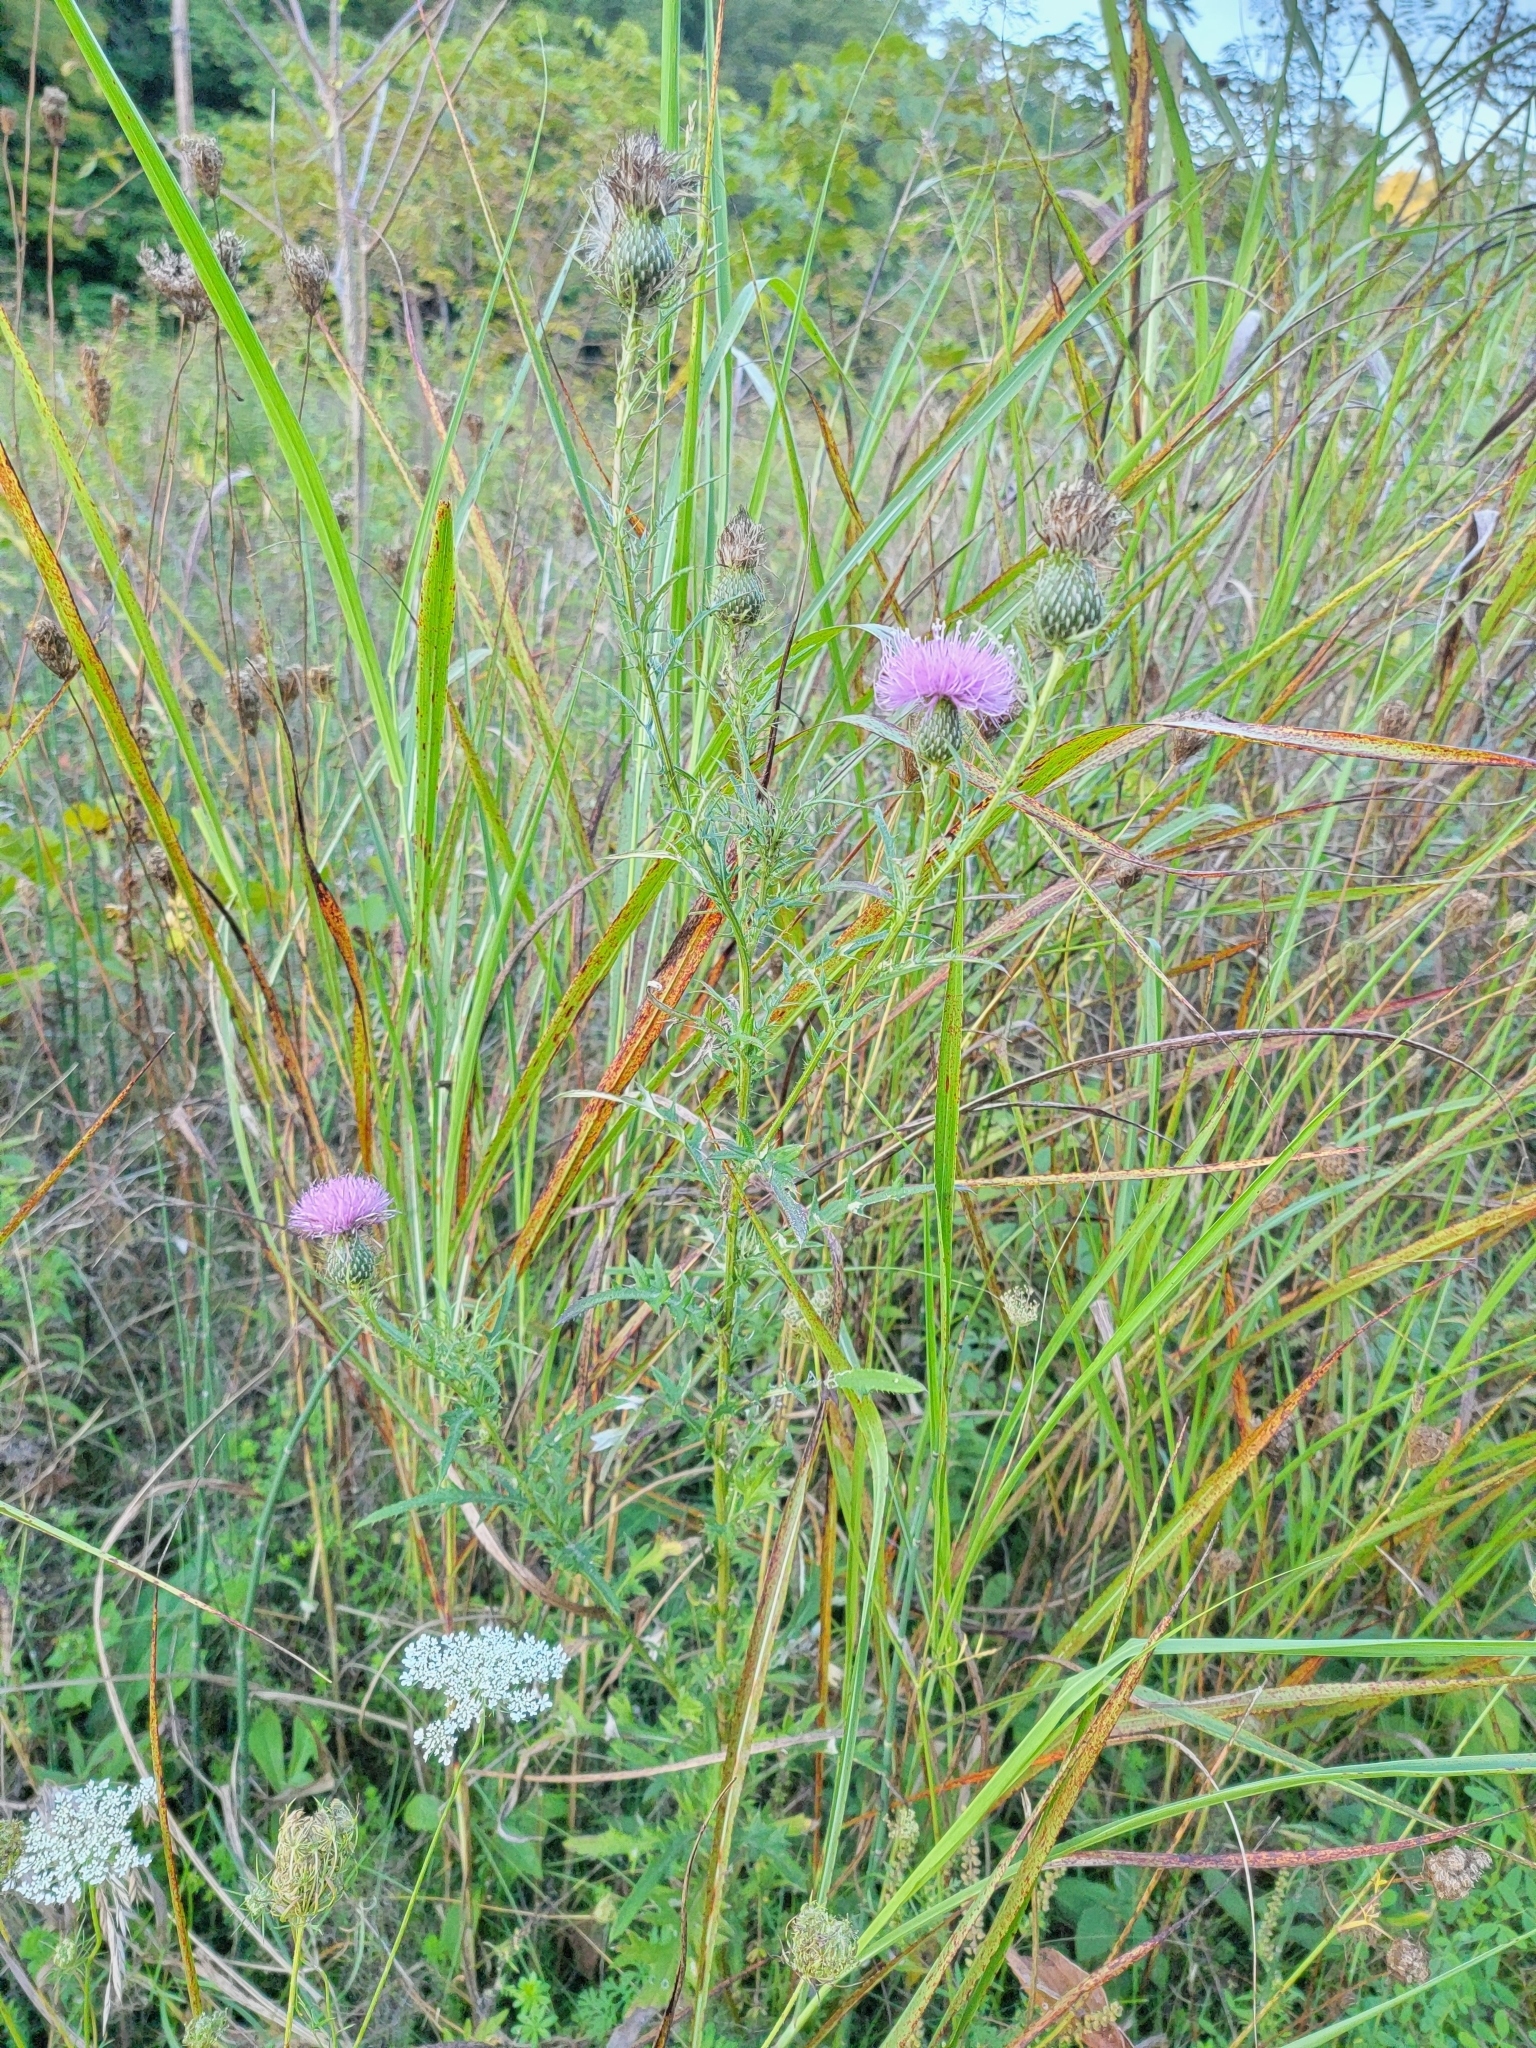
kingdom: Plantae
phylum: Tracheophyta
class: Magnoliopsida
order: Asterales
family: Asteraceae
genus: Cirsium
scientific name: Cirsium discolor
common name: Field thistle
